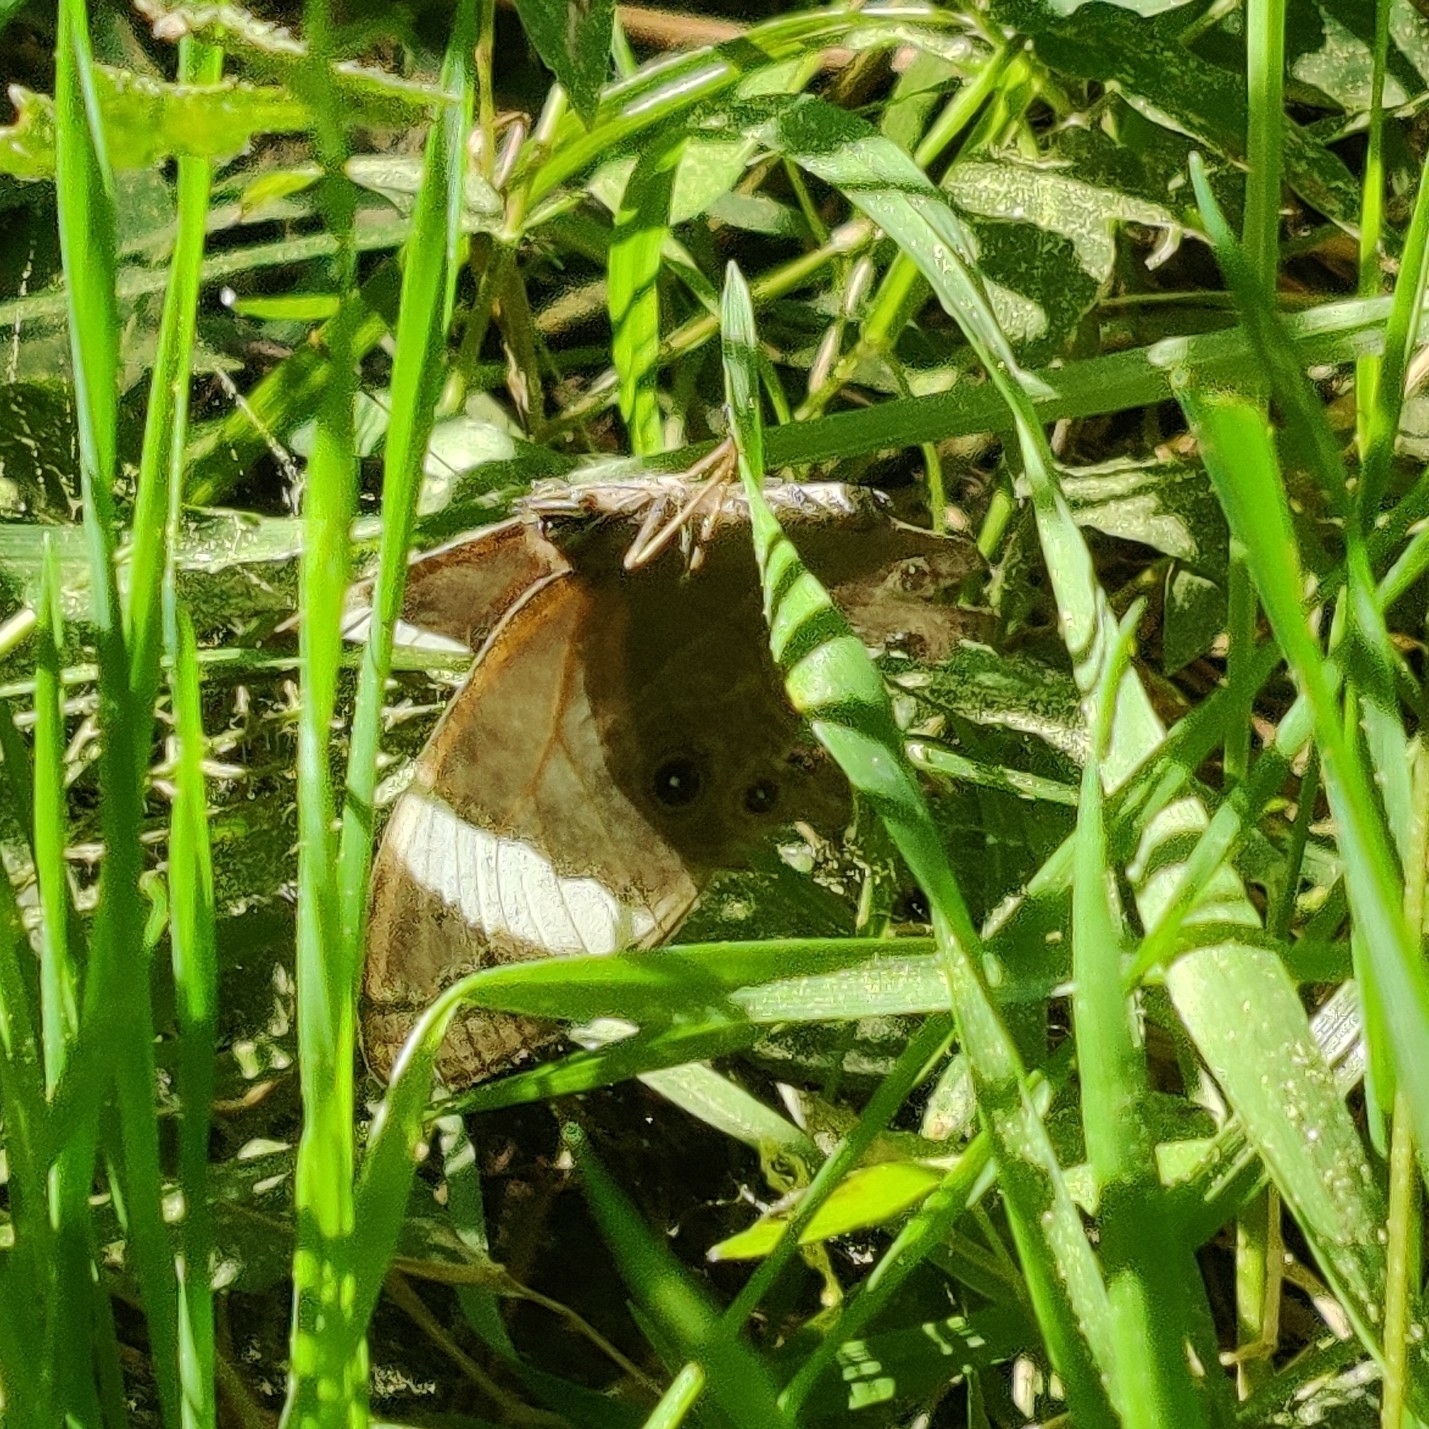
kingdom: Animalia
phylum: Arthropoda
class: Insecta
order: Lepidoptera
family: Nymphalidae
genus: Lethe
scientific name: Lethe verma
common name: Straight-banded treebrown
